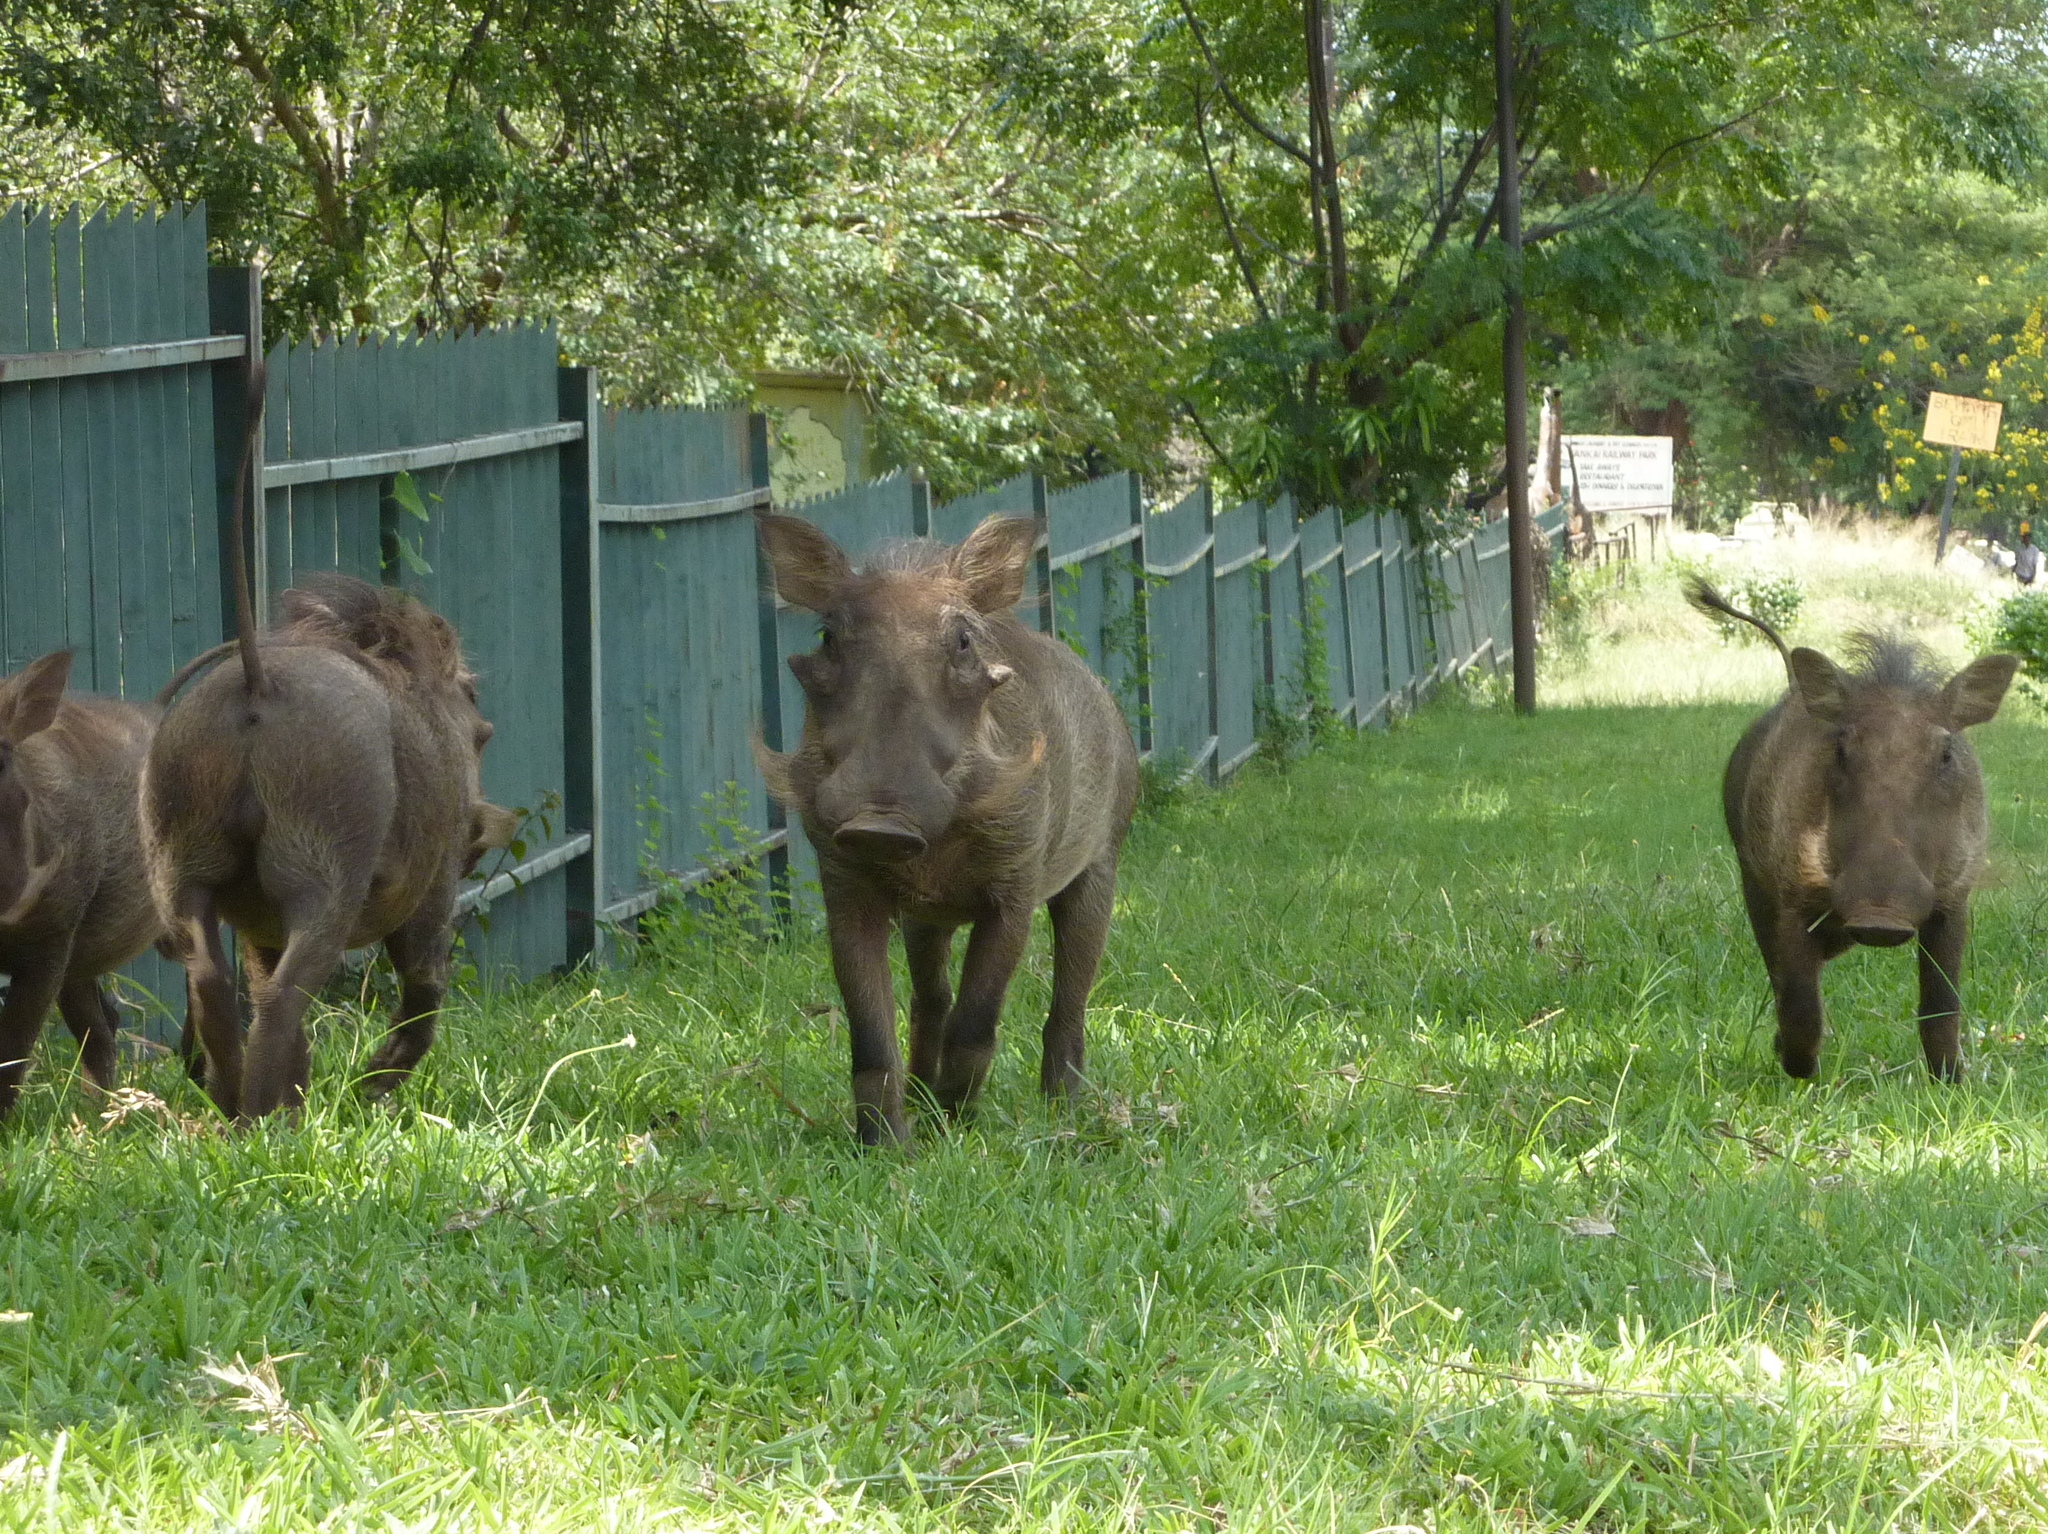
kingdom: Animalia
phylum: Chordata
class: Mammalia
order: Artiodactyla
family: Suidae
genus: Phacochoerus
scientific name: Phacochoerus africanus
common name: Common warthog
